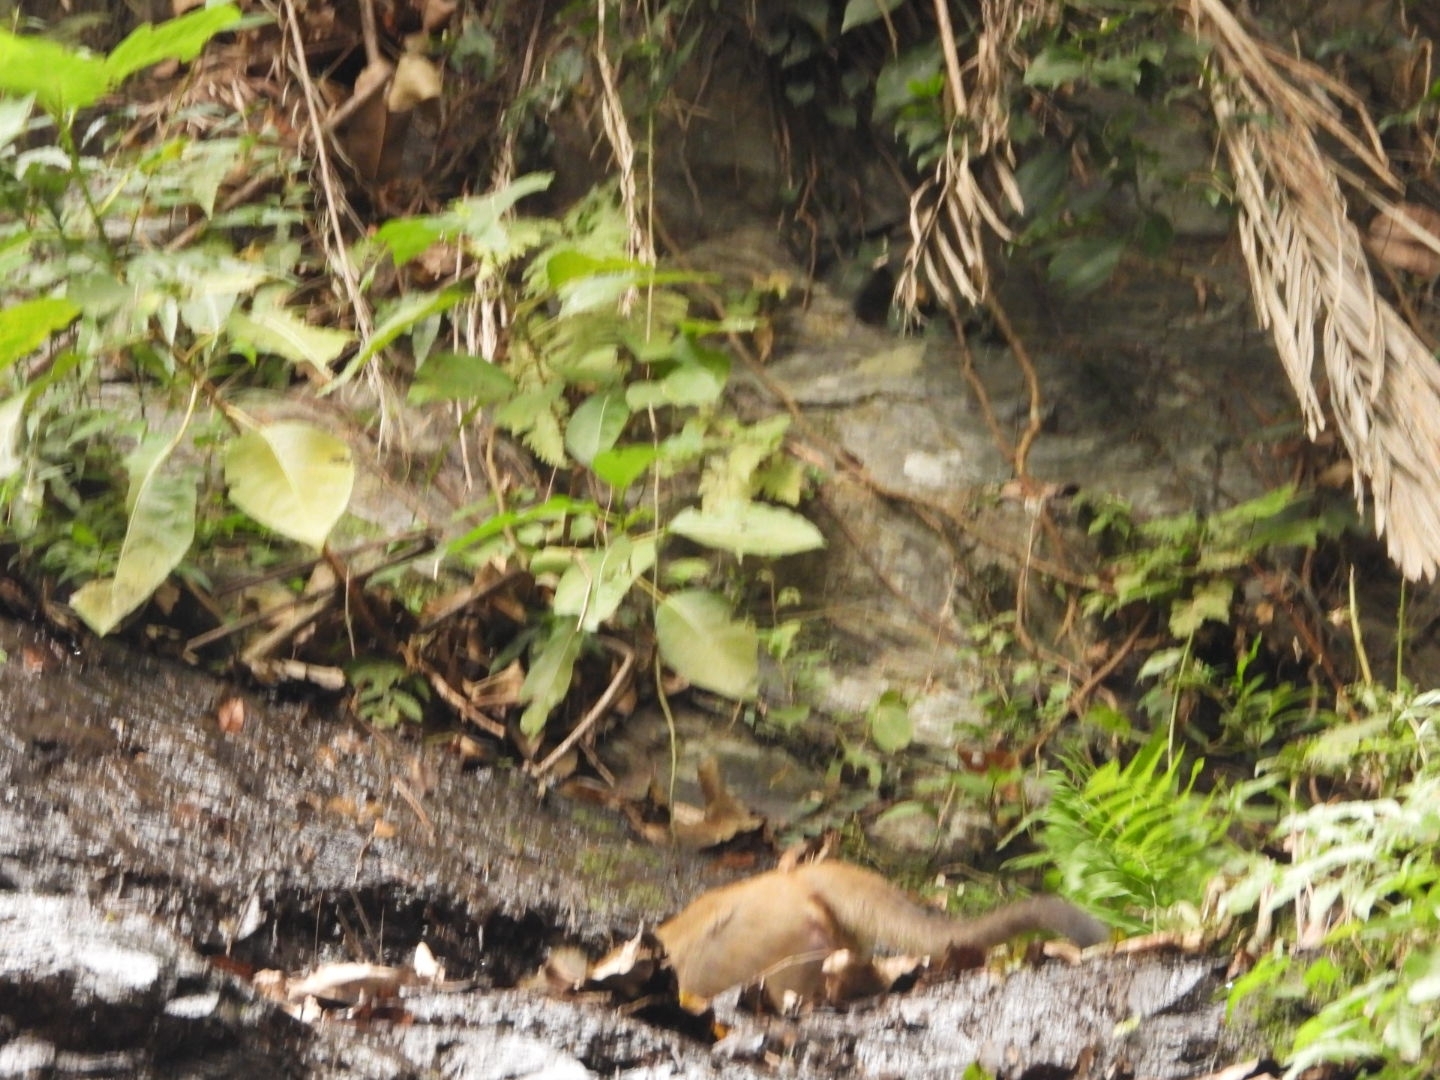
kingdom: Animalia
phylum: Chordata
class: Mammalia
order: Primates
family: Cercopithecidae
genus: Macaca
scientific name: Macaca cyclopis
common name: Formosan rock macaque
